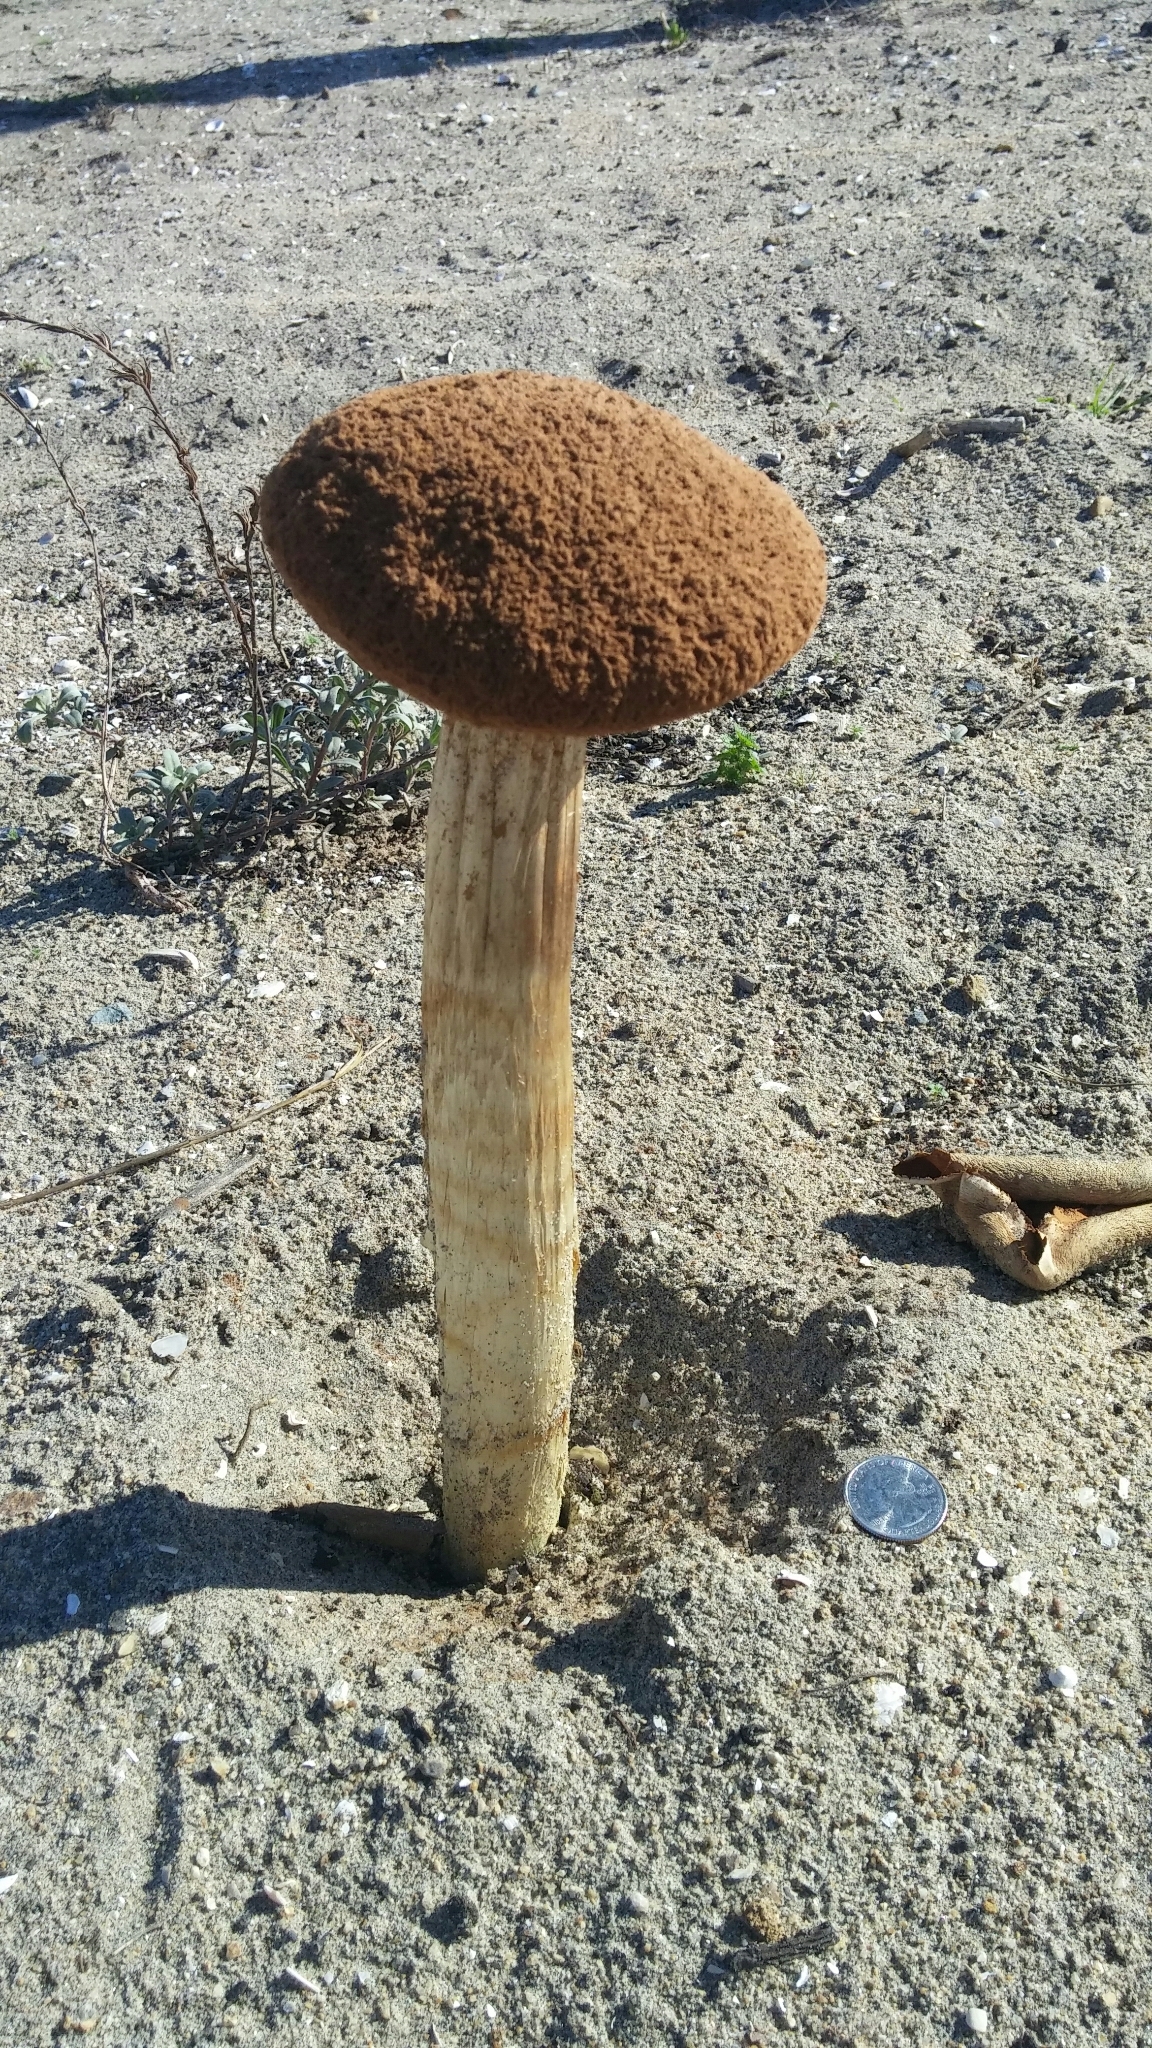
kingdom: Fungi
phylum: Basidiomycota
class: Agaricomycetes
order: Agaricales
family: Agaricaceae
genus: Battarrea
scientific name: Battarrea phalloides
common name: Sandy stiltball
